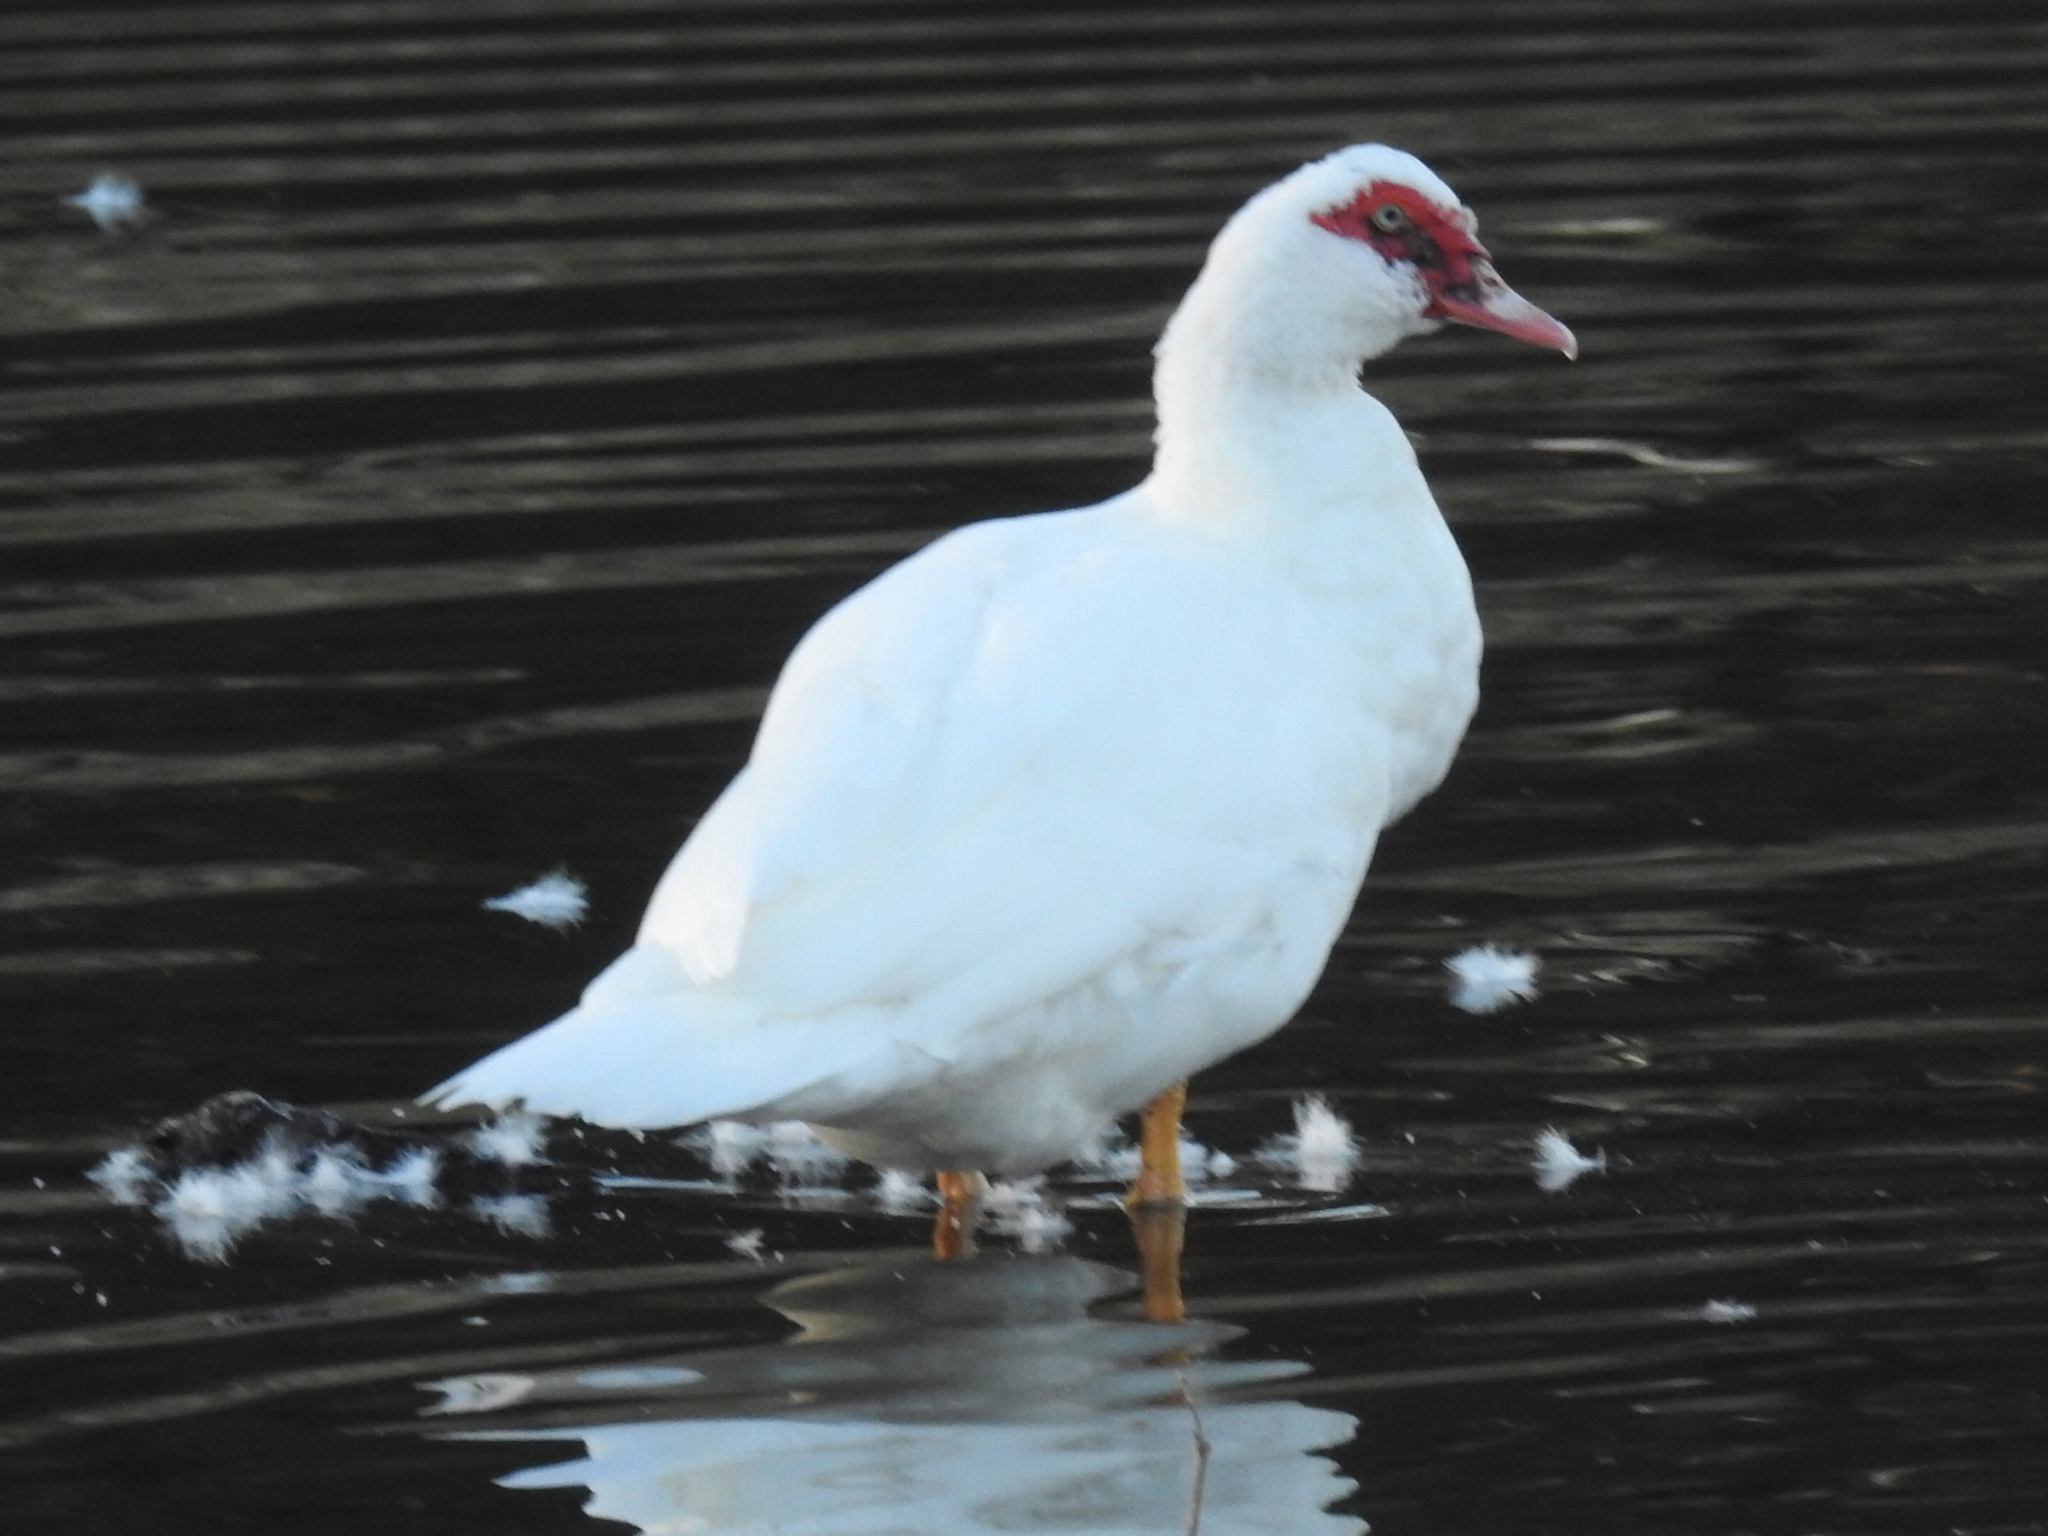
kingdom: Animalia
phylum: Chordata
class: Aves
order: Anseriformes
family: Anatidae
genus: Cairina
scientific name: Cairina moschata
